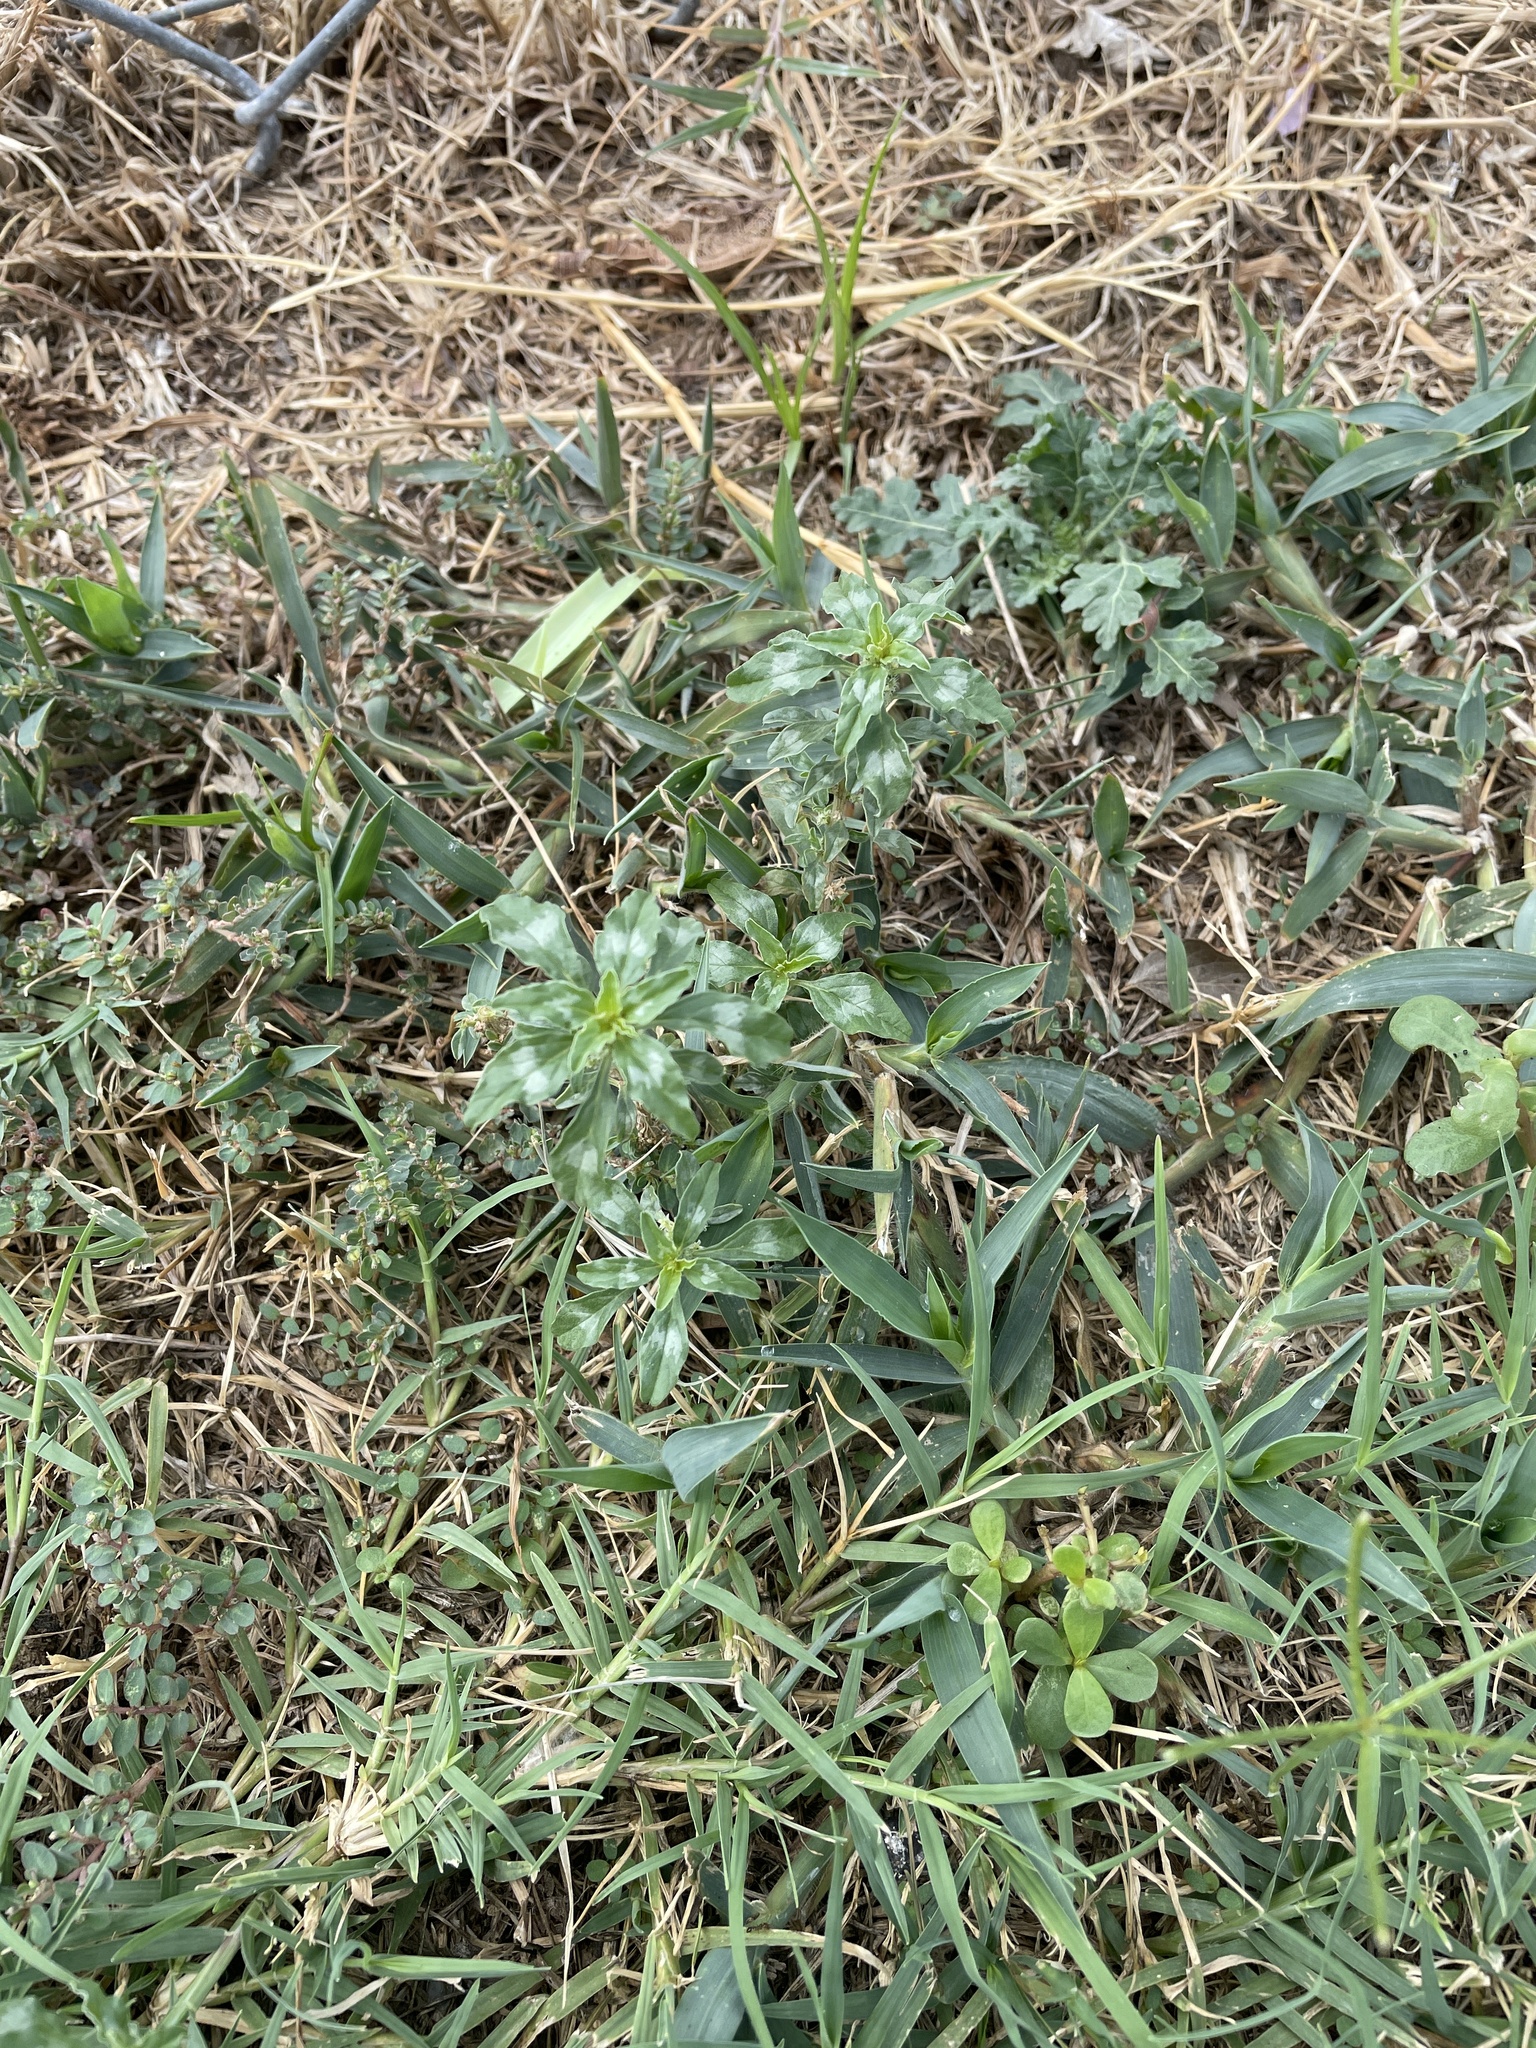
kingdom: Plantae
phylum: Tracheophyta
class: Magnoliopsida
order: Caryophyllales
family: Amaranthaceae
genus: Amaranthus
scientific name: Amaranthus polygonoides
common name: Tropical amaranth
